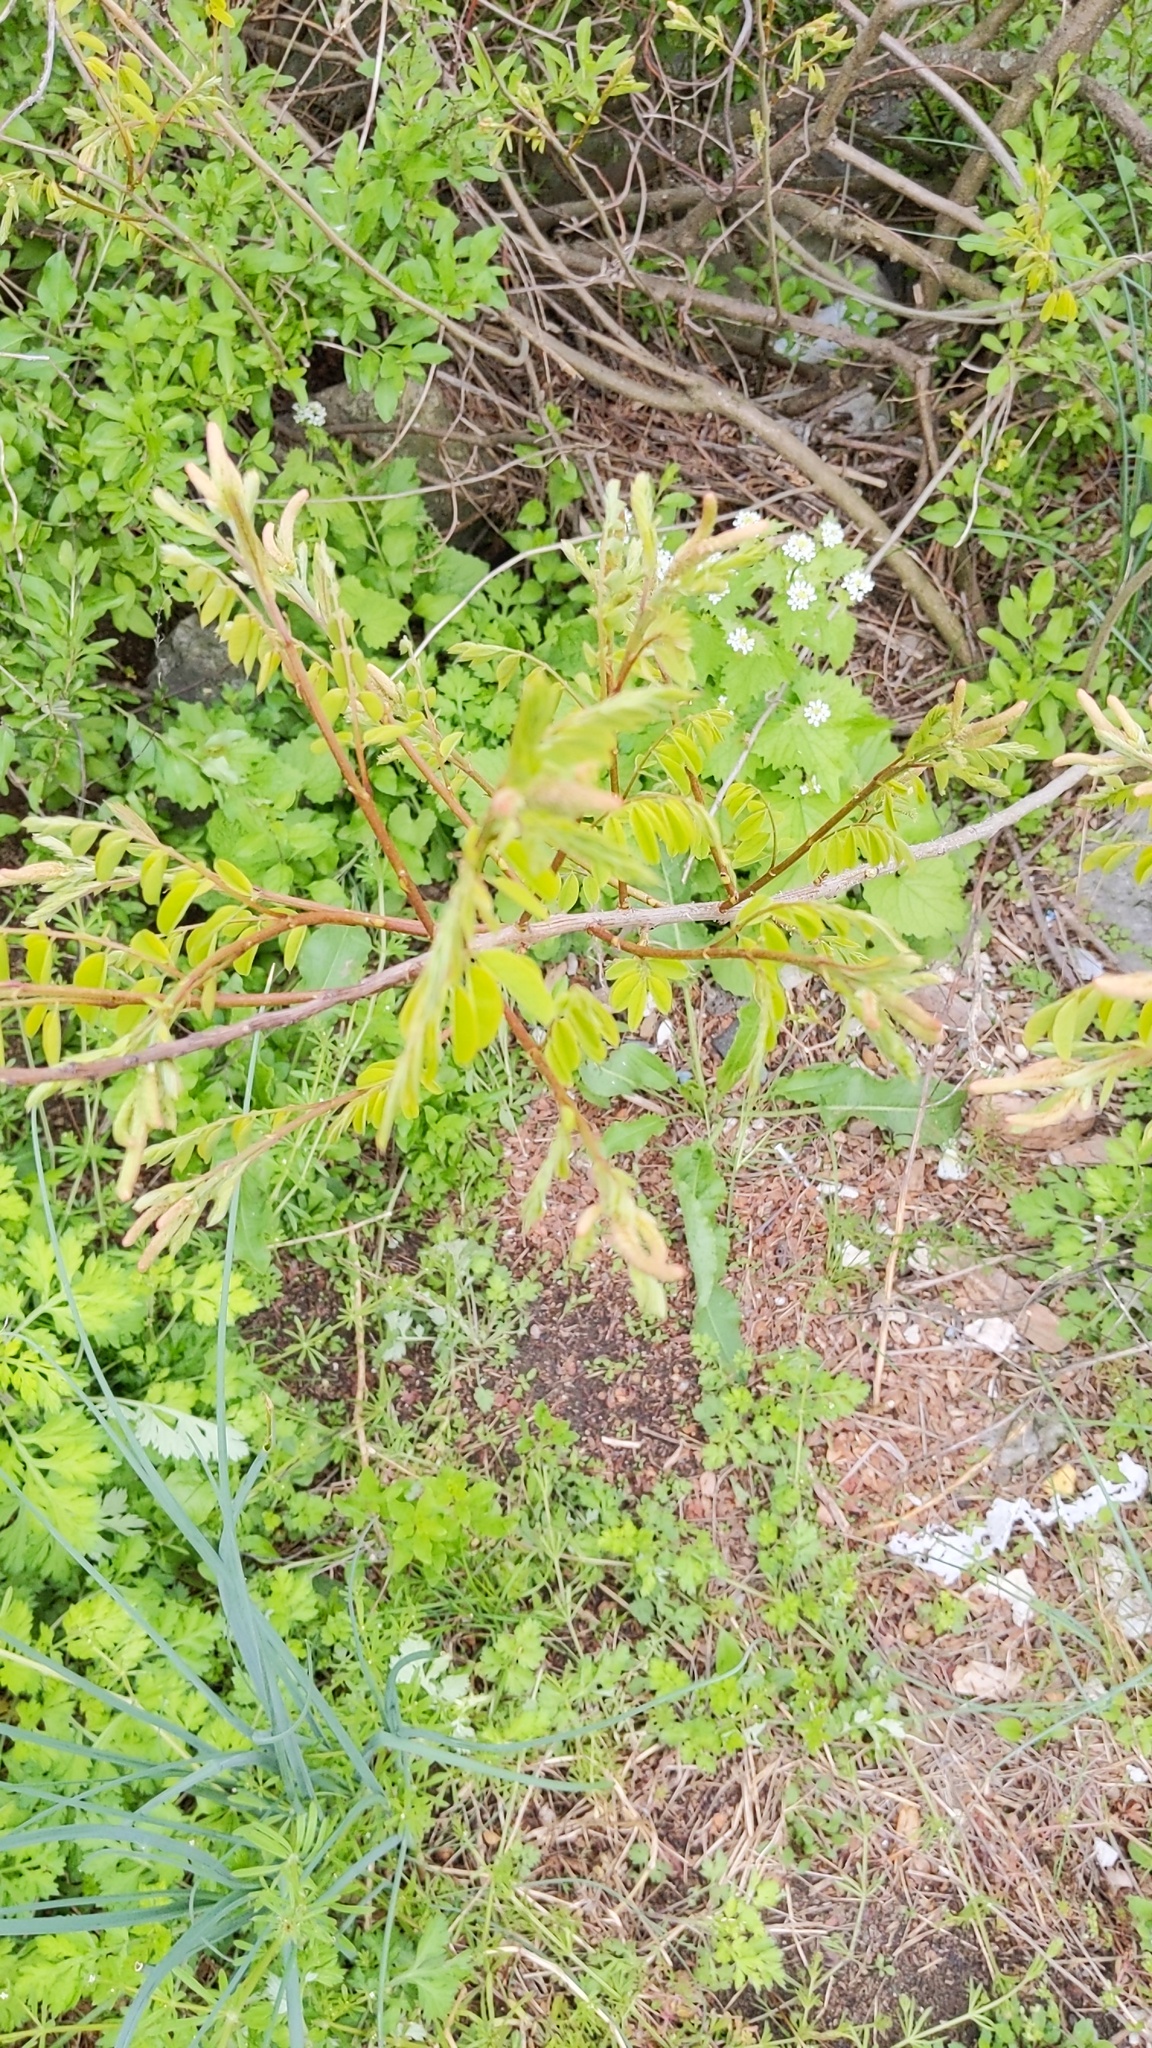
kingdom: Plantae
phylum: Tracheophyta
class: Magnoliopsida
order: Fabales
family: Fabaceae
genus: Amorpha
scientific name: Amorpha fruticosa
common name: False indigo
